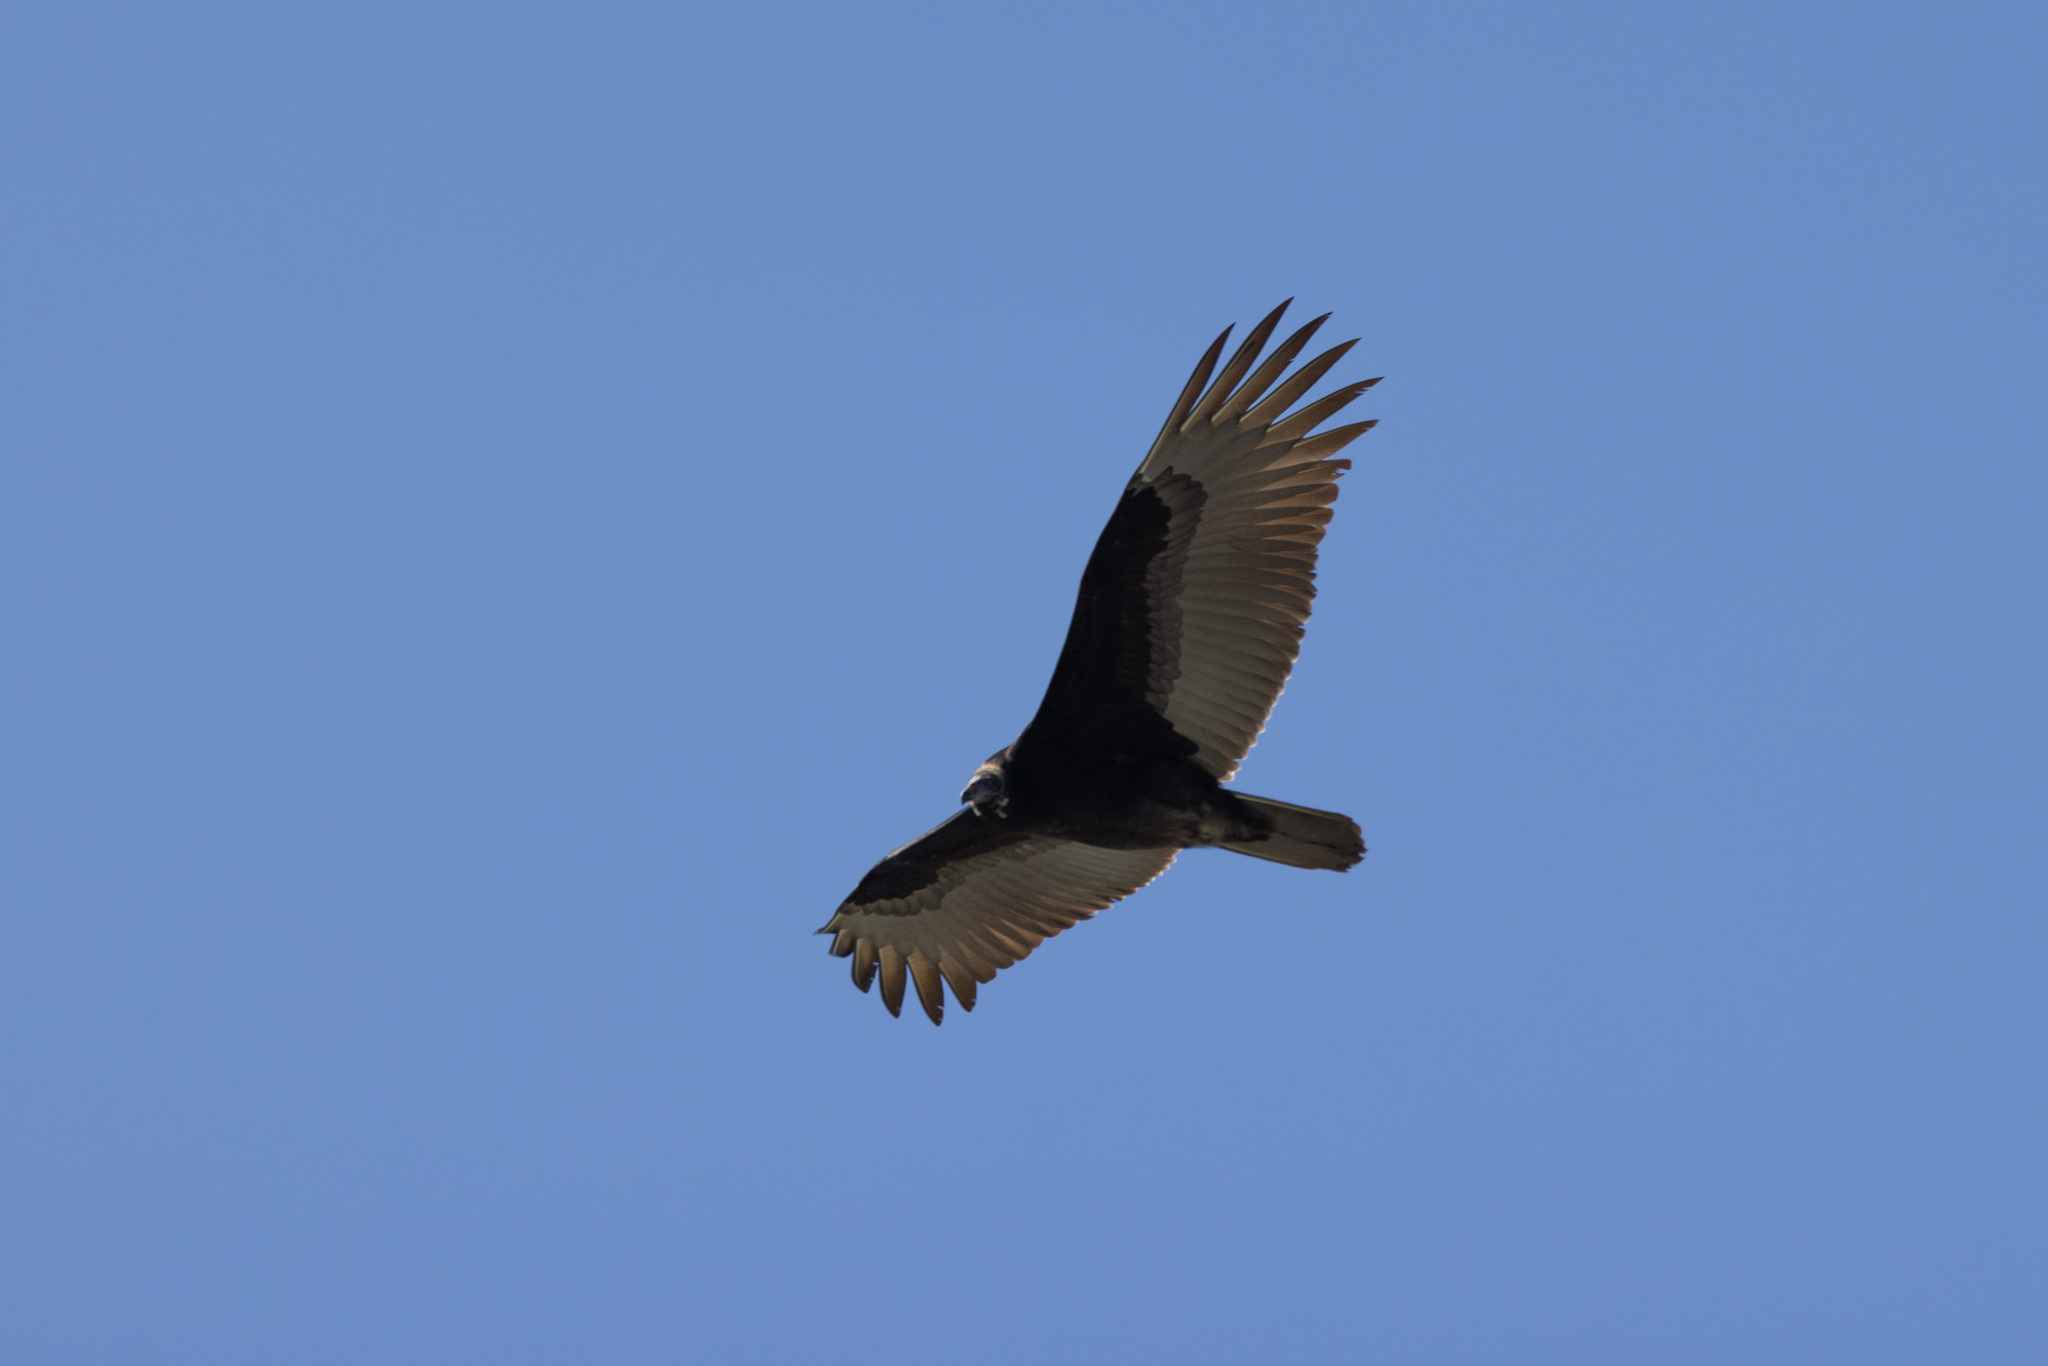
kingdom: Animalia
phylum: Chordata
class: Aves
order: Accipitriformes
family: Cathartidae
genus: Cathartes
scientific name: Cathartes aura
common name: Turkey vulture
